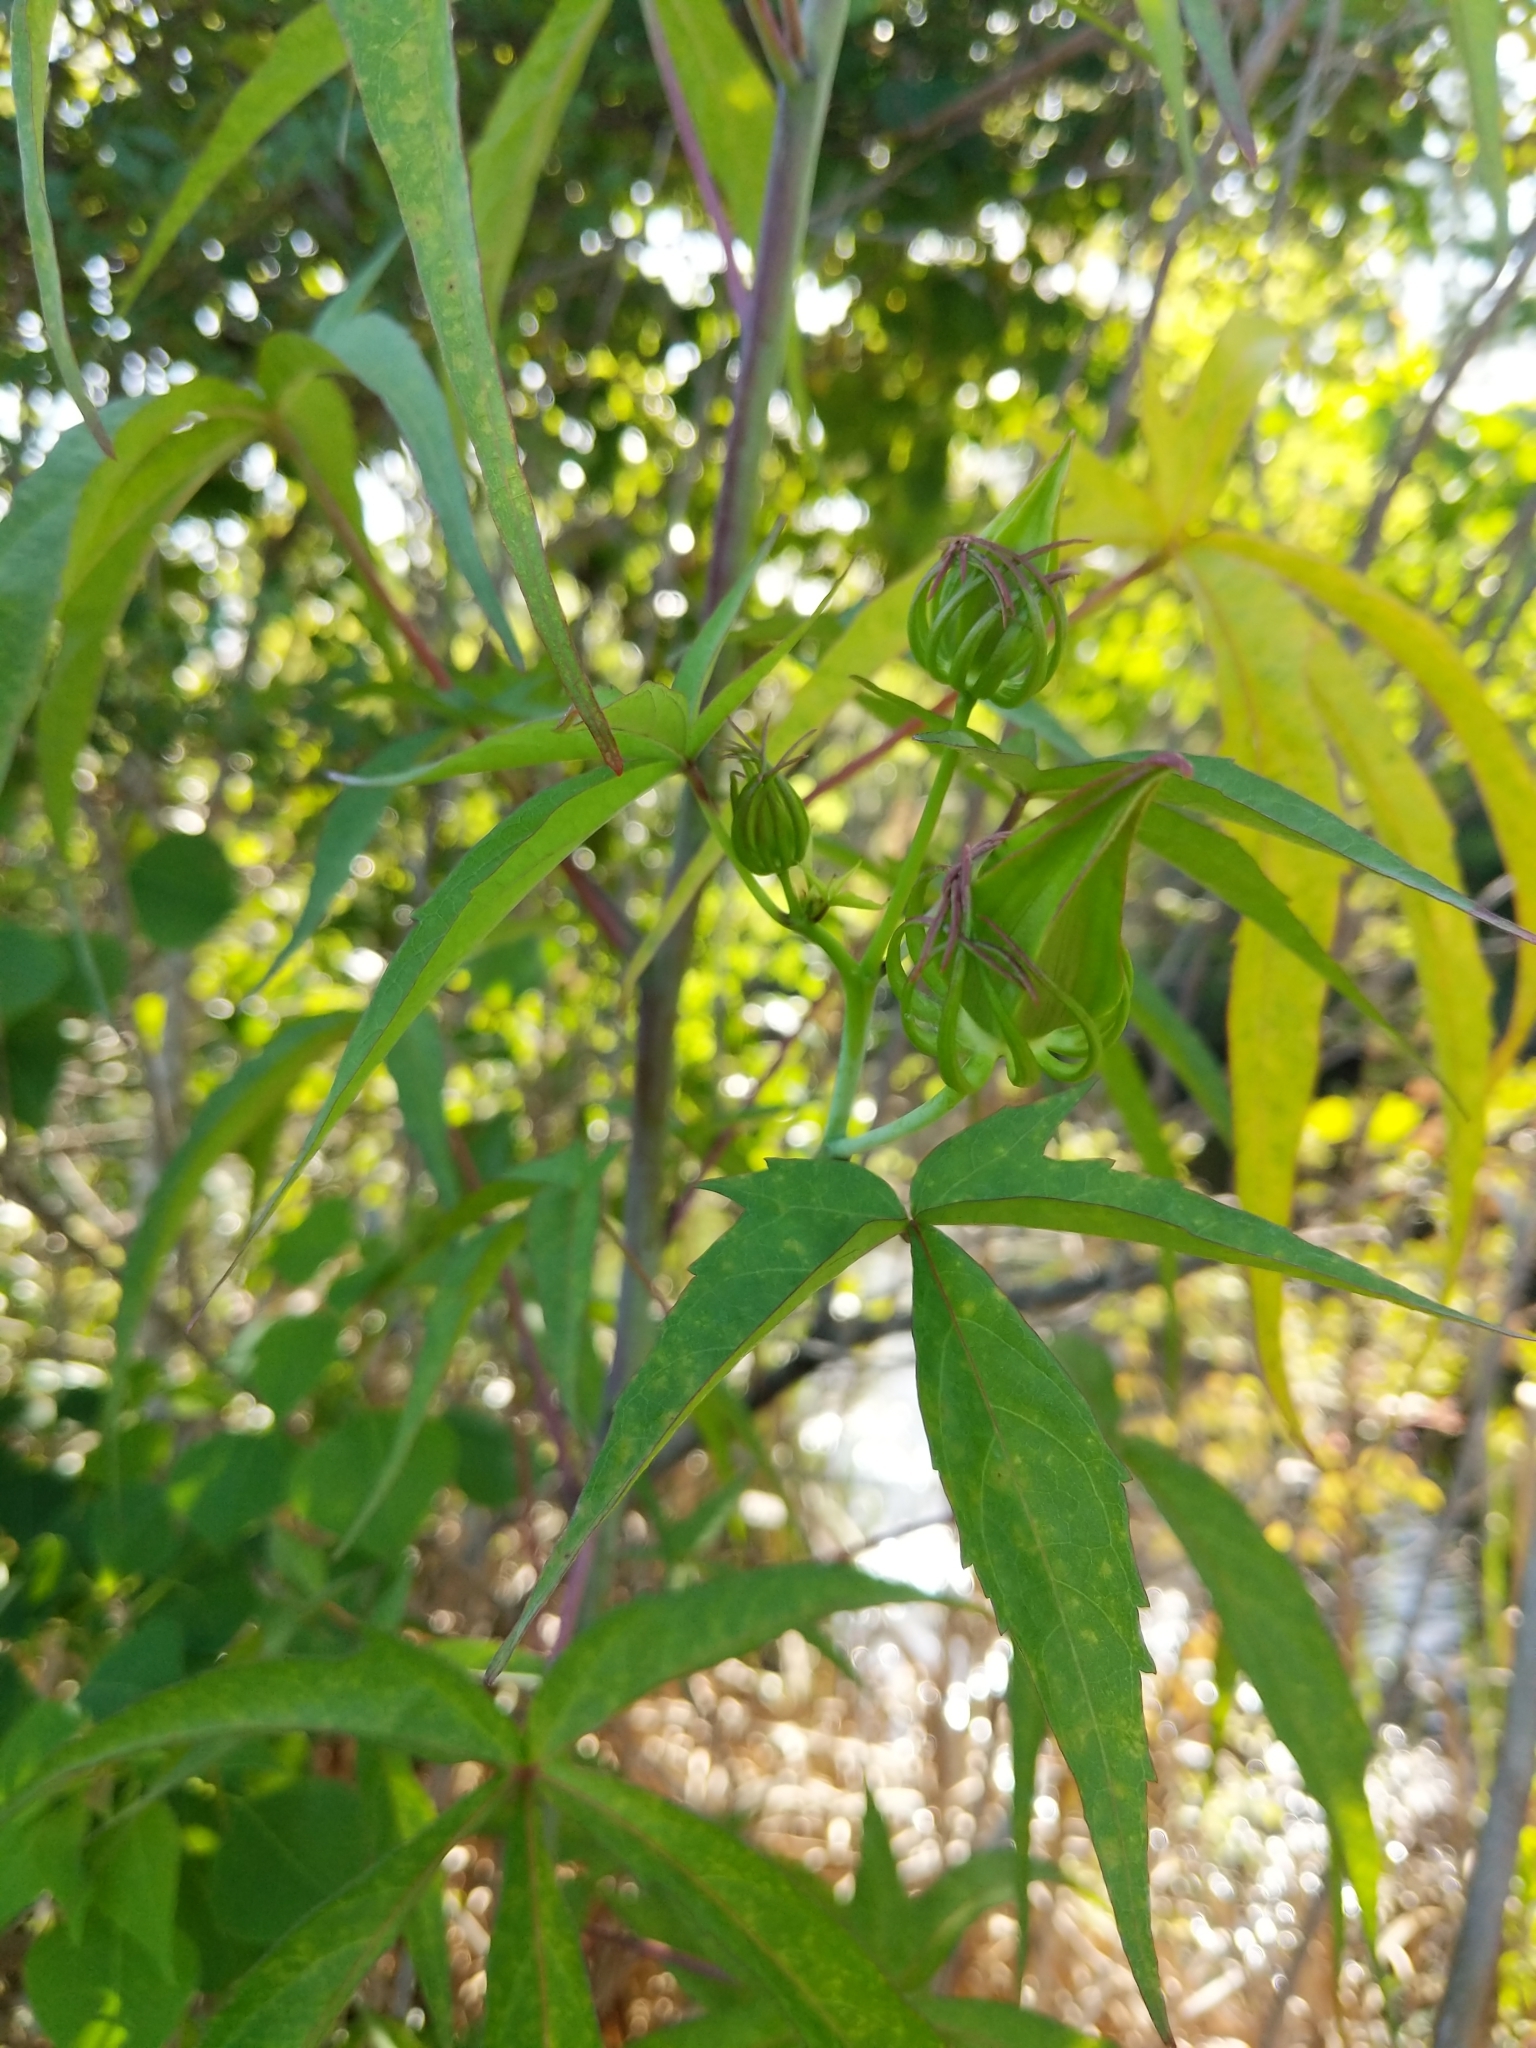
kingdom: Plantae
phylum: Tracheophyta
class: Magnoliopsida
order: Malvales
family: Malvaceae
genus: Hibiscus
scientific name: Hibiscus coccineus
